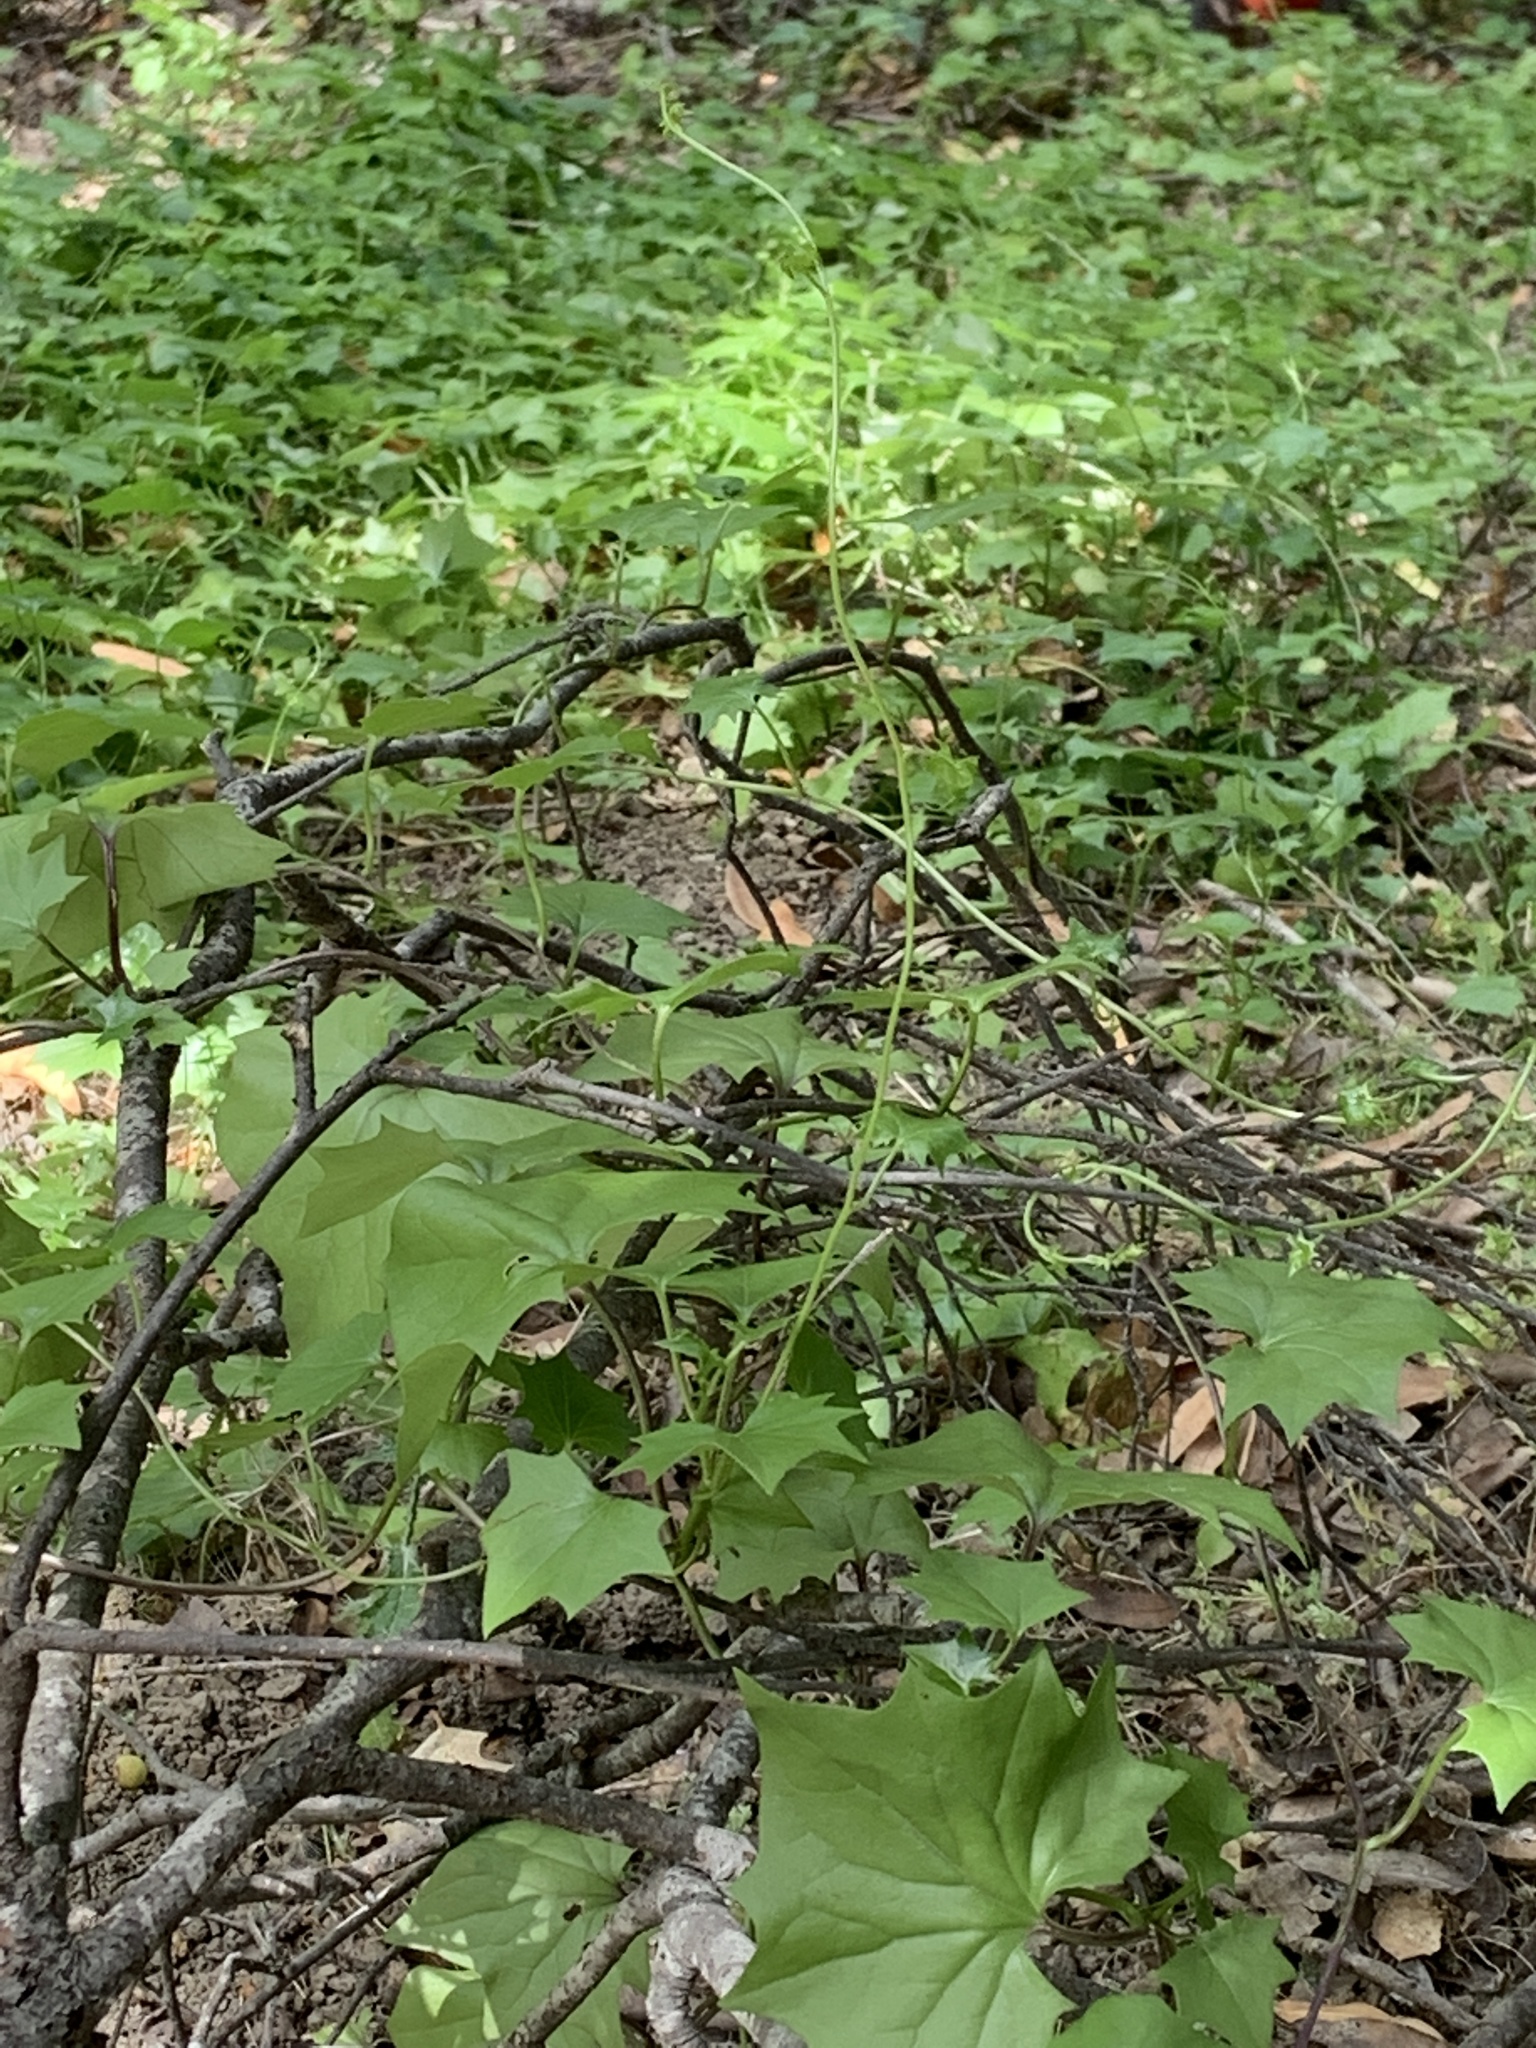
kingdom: Plantae
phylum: Tracheophyta
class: Magnoliopsida
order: Asterales
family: Asteraceae
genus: Delairea
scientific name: Delairea odorata
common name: Cape-ivy
